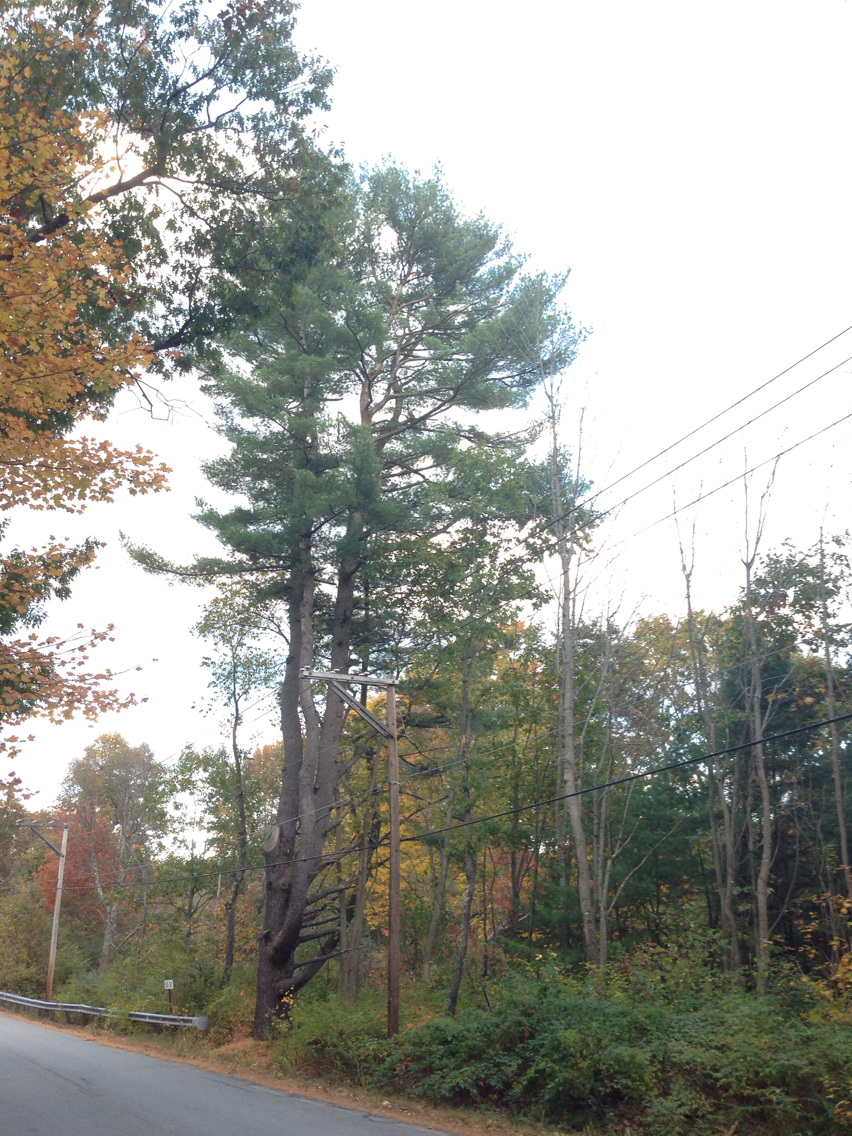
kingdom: Plantae
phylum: Tracheophyta
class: Pinopsida
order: Pinales
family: Pinaceae
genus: Pinus
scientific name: Pinus strobus
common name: Weymouth pine
